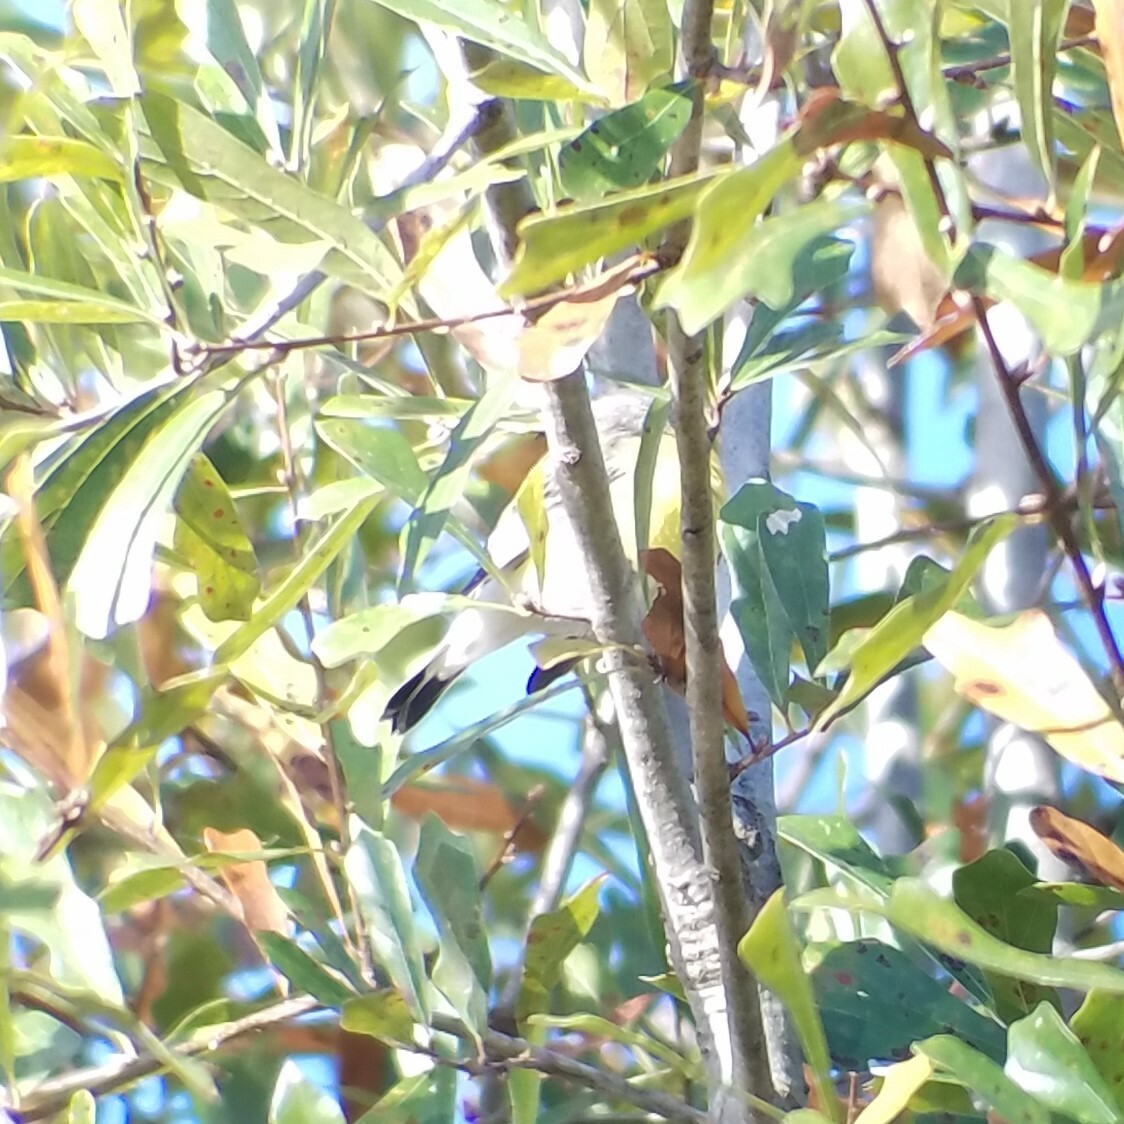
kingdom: Animalia
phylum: Chordata
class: Aves
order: Passeriformes
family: Parulidae
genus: Setophaga
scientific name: Setophaga magnolia
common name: Magnolia warbler
